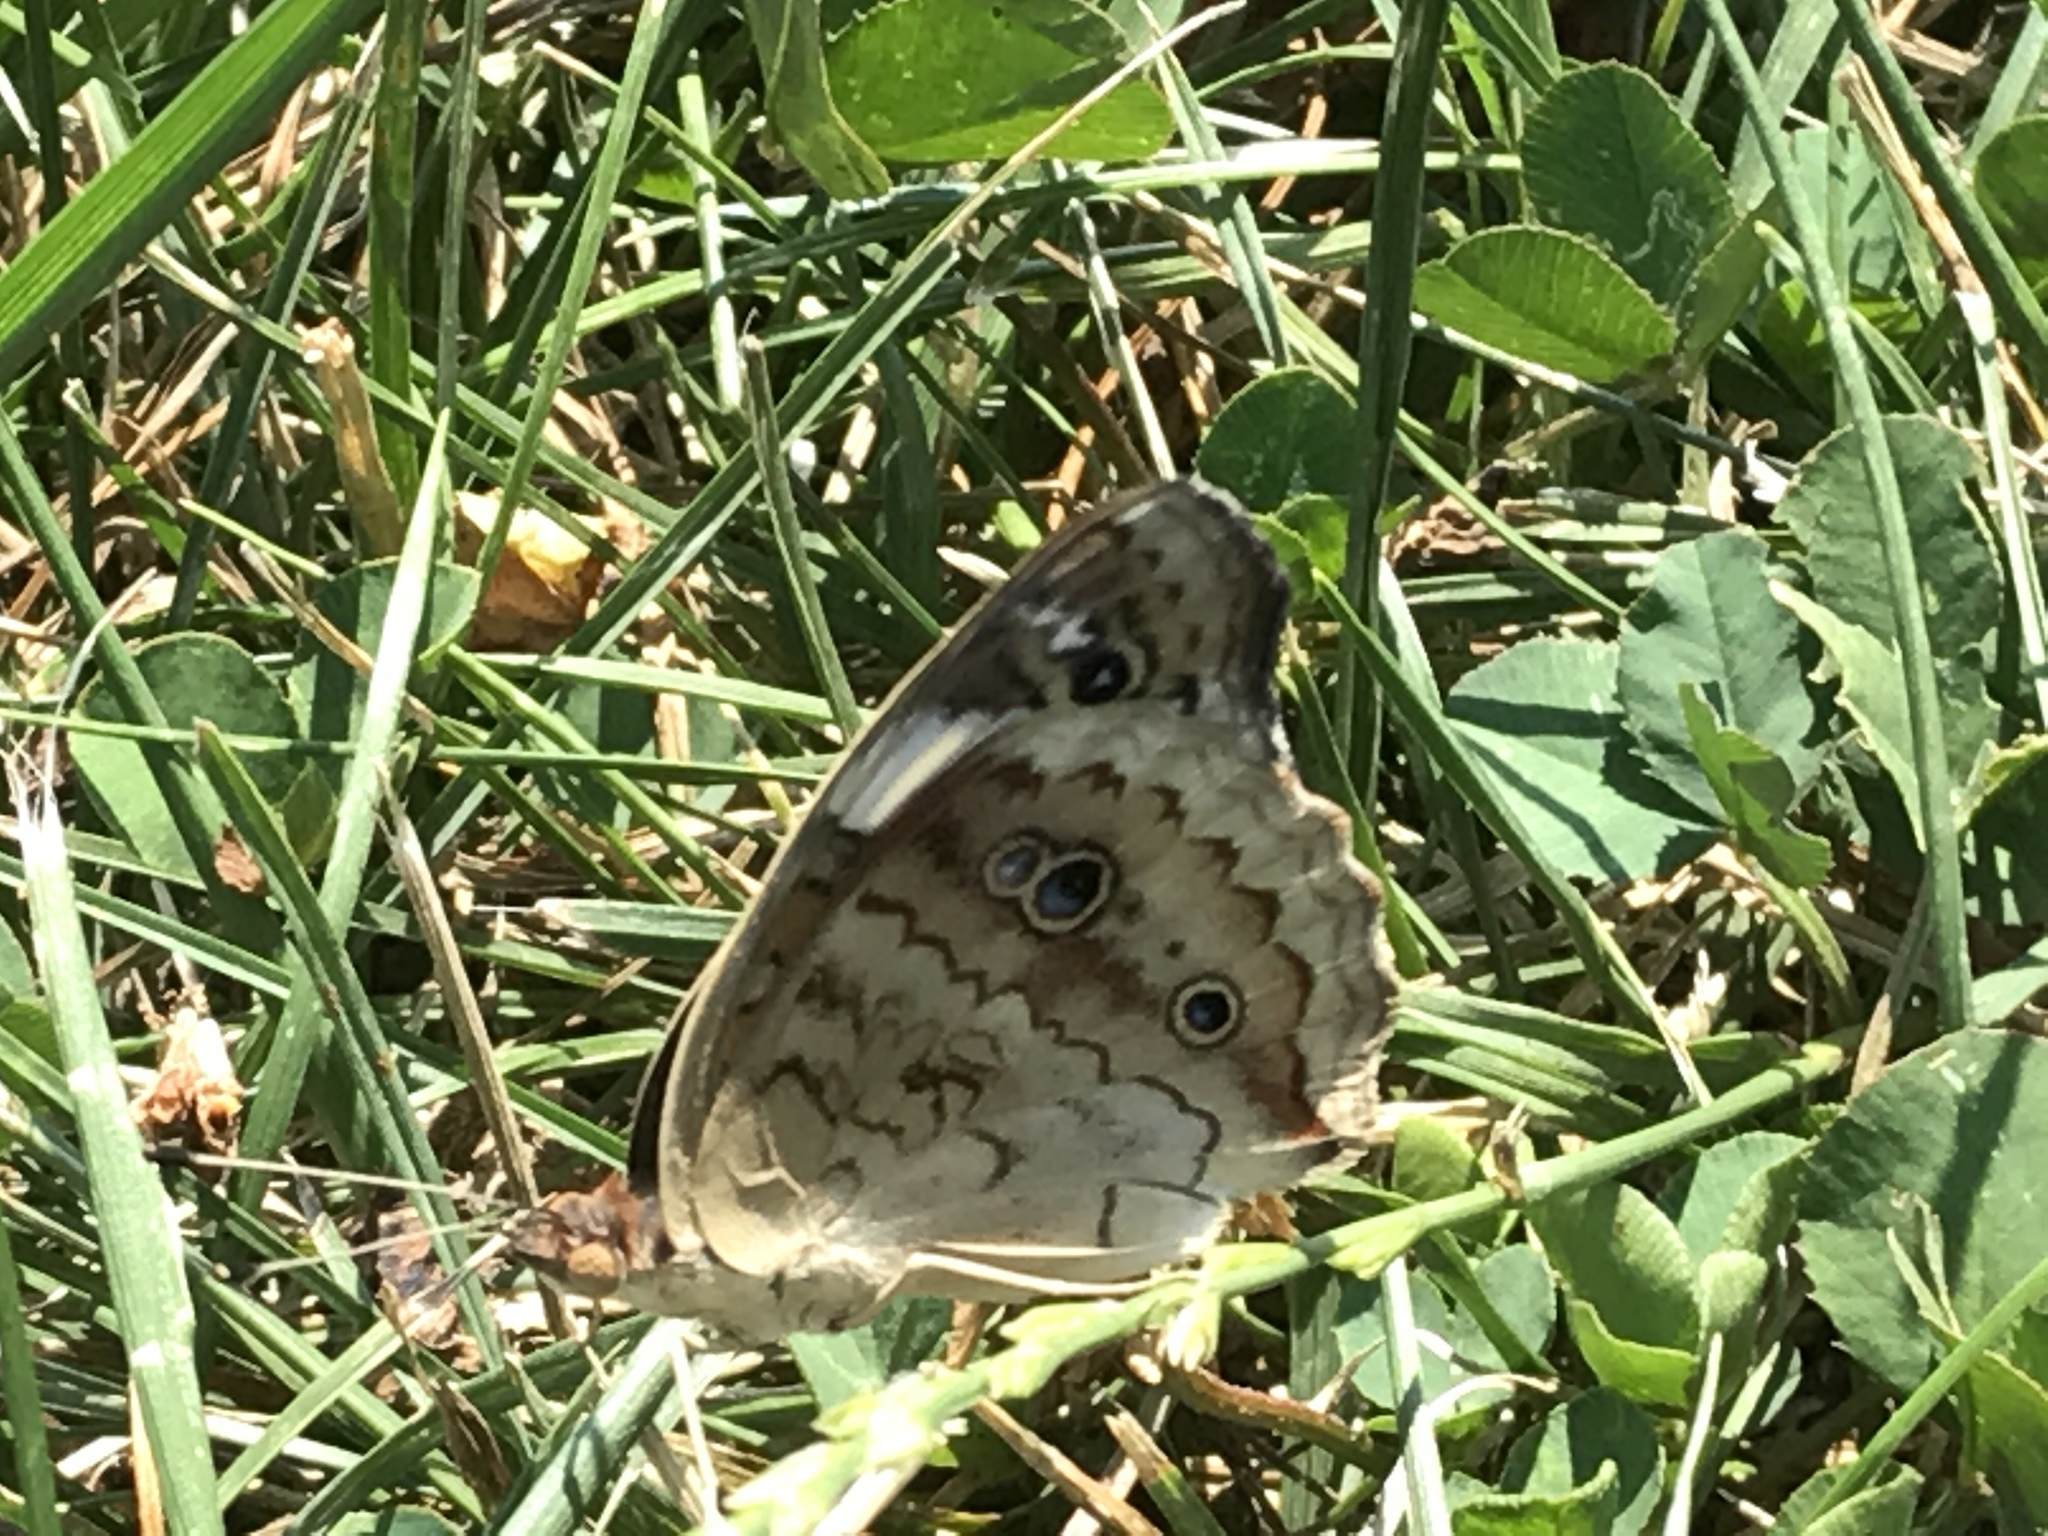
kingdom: Animalia
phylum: Arthropoda
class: Insecta
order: Lepidoptera
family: Nymphalidae
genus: Junonia
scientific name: Junonia coenia
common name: Common buckeye
